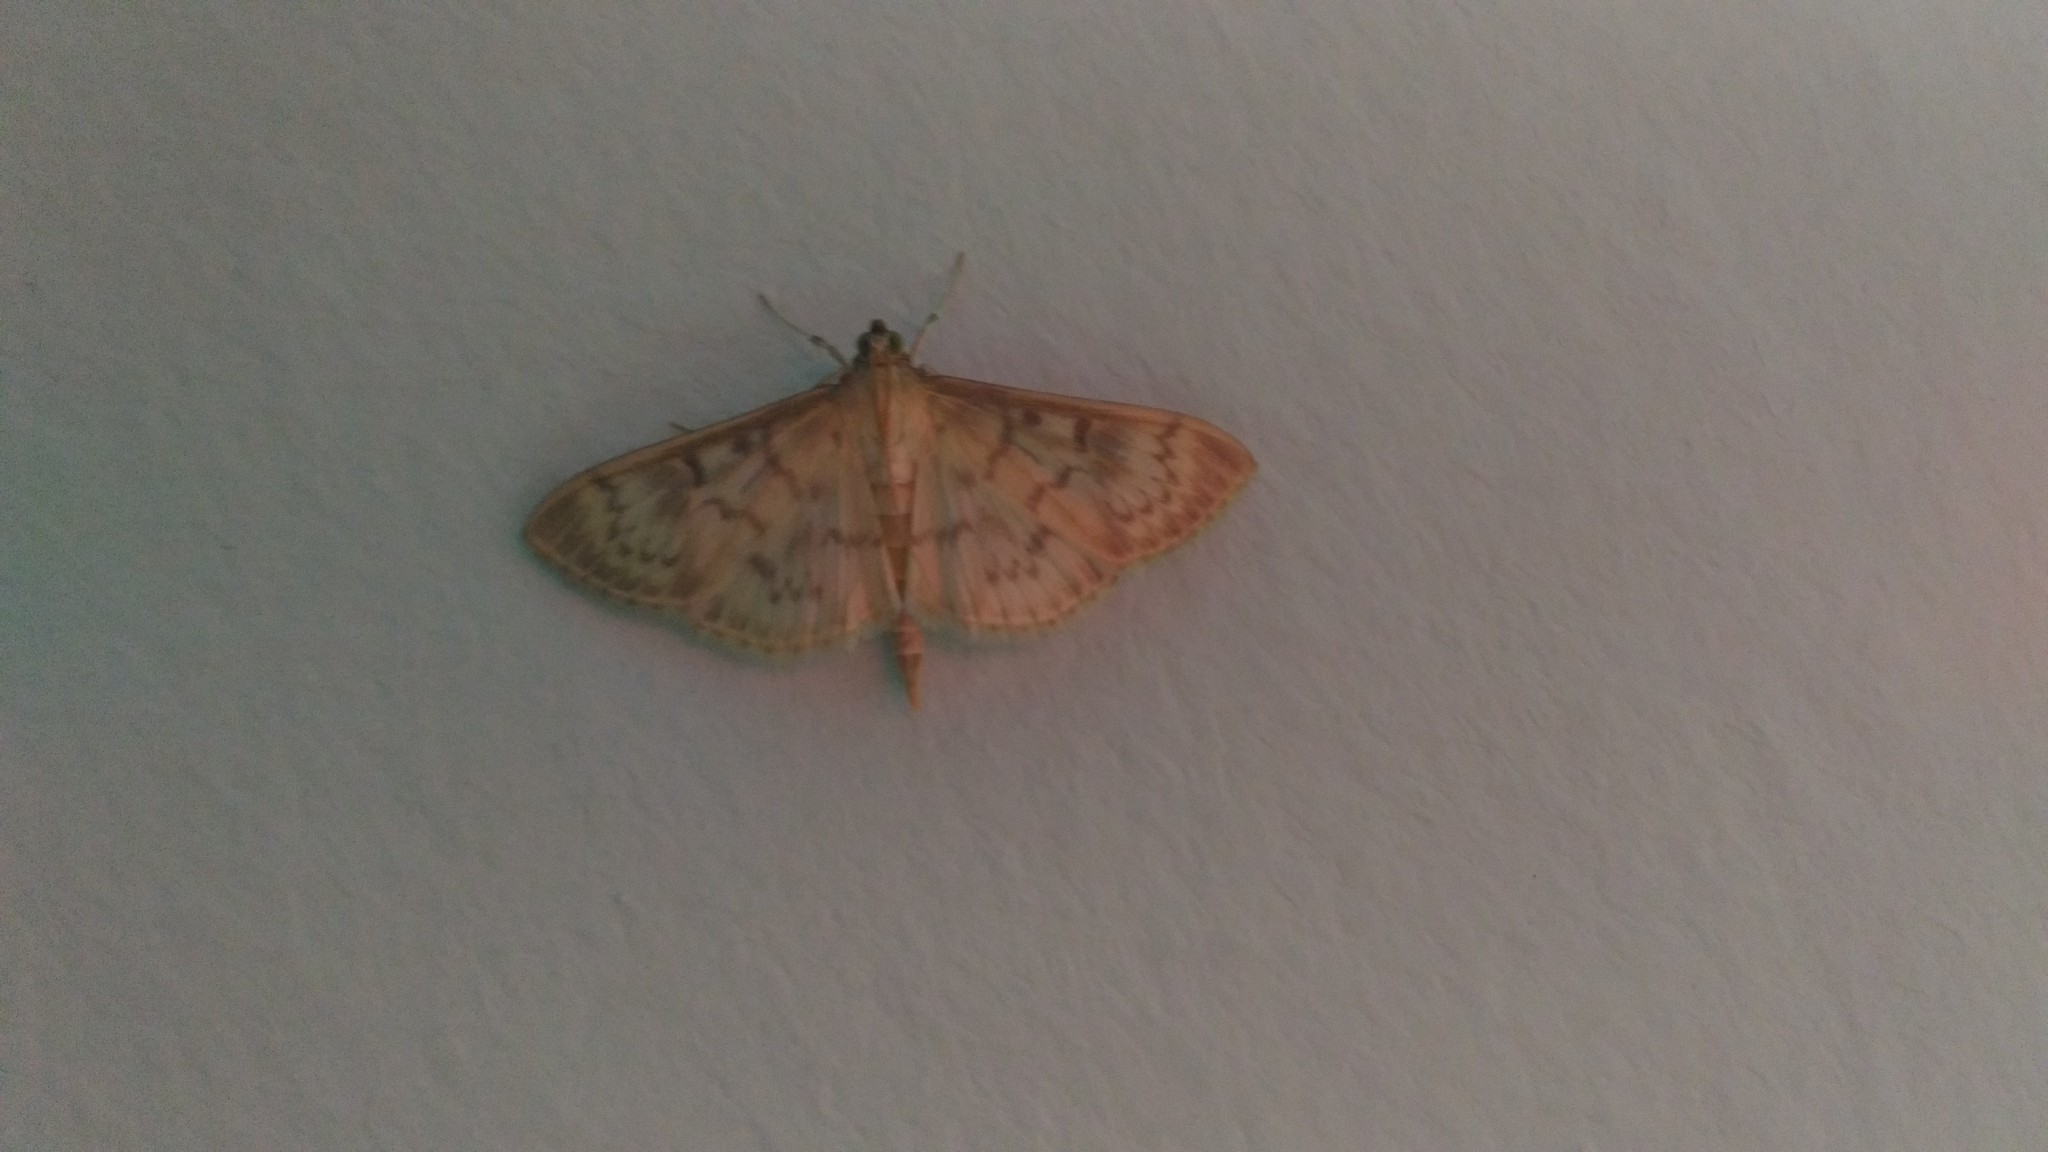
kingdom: Animalia
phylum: Arthropoda
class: Insecta
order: Lepidoptera
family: Crambidae
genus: Patania
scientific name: Patania ruralis
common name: Mother of pearl
